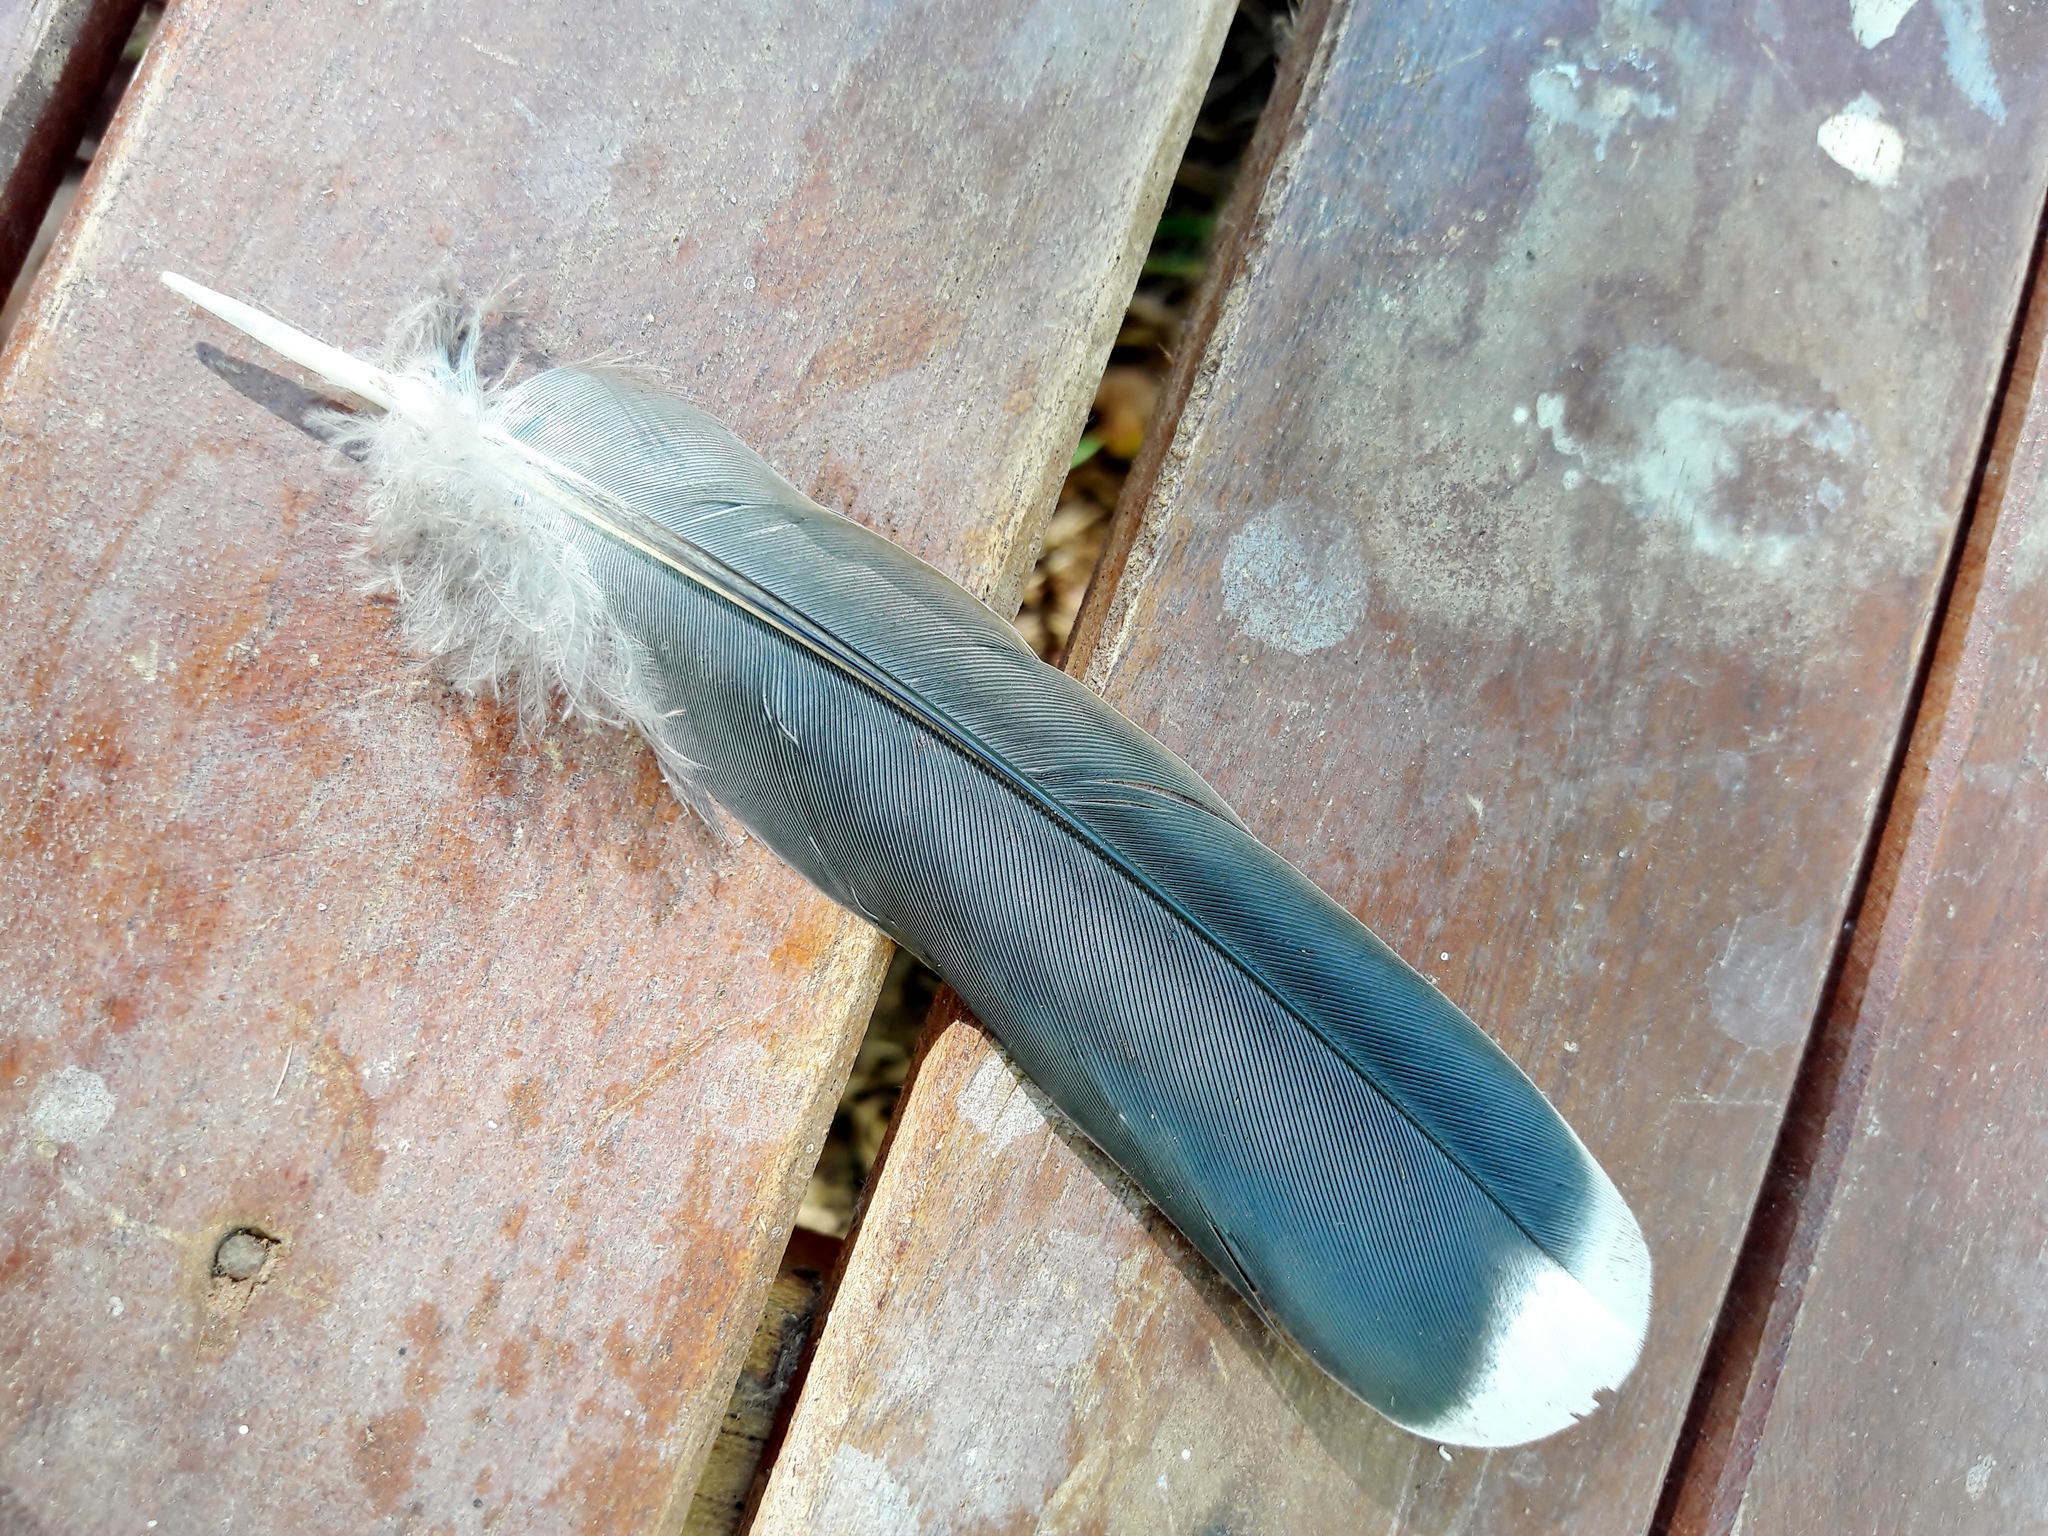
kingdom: Animalia
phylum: Chordata
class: Aves
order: Columbiformes
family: Columbidae
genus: Leptotila
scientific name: Leptotila verreauxi
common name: White-tipped dove
